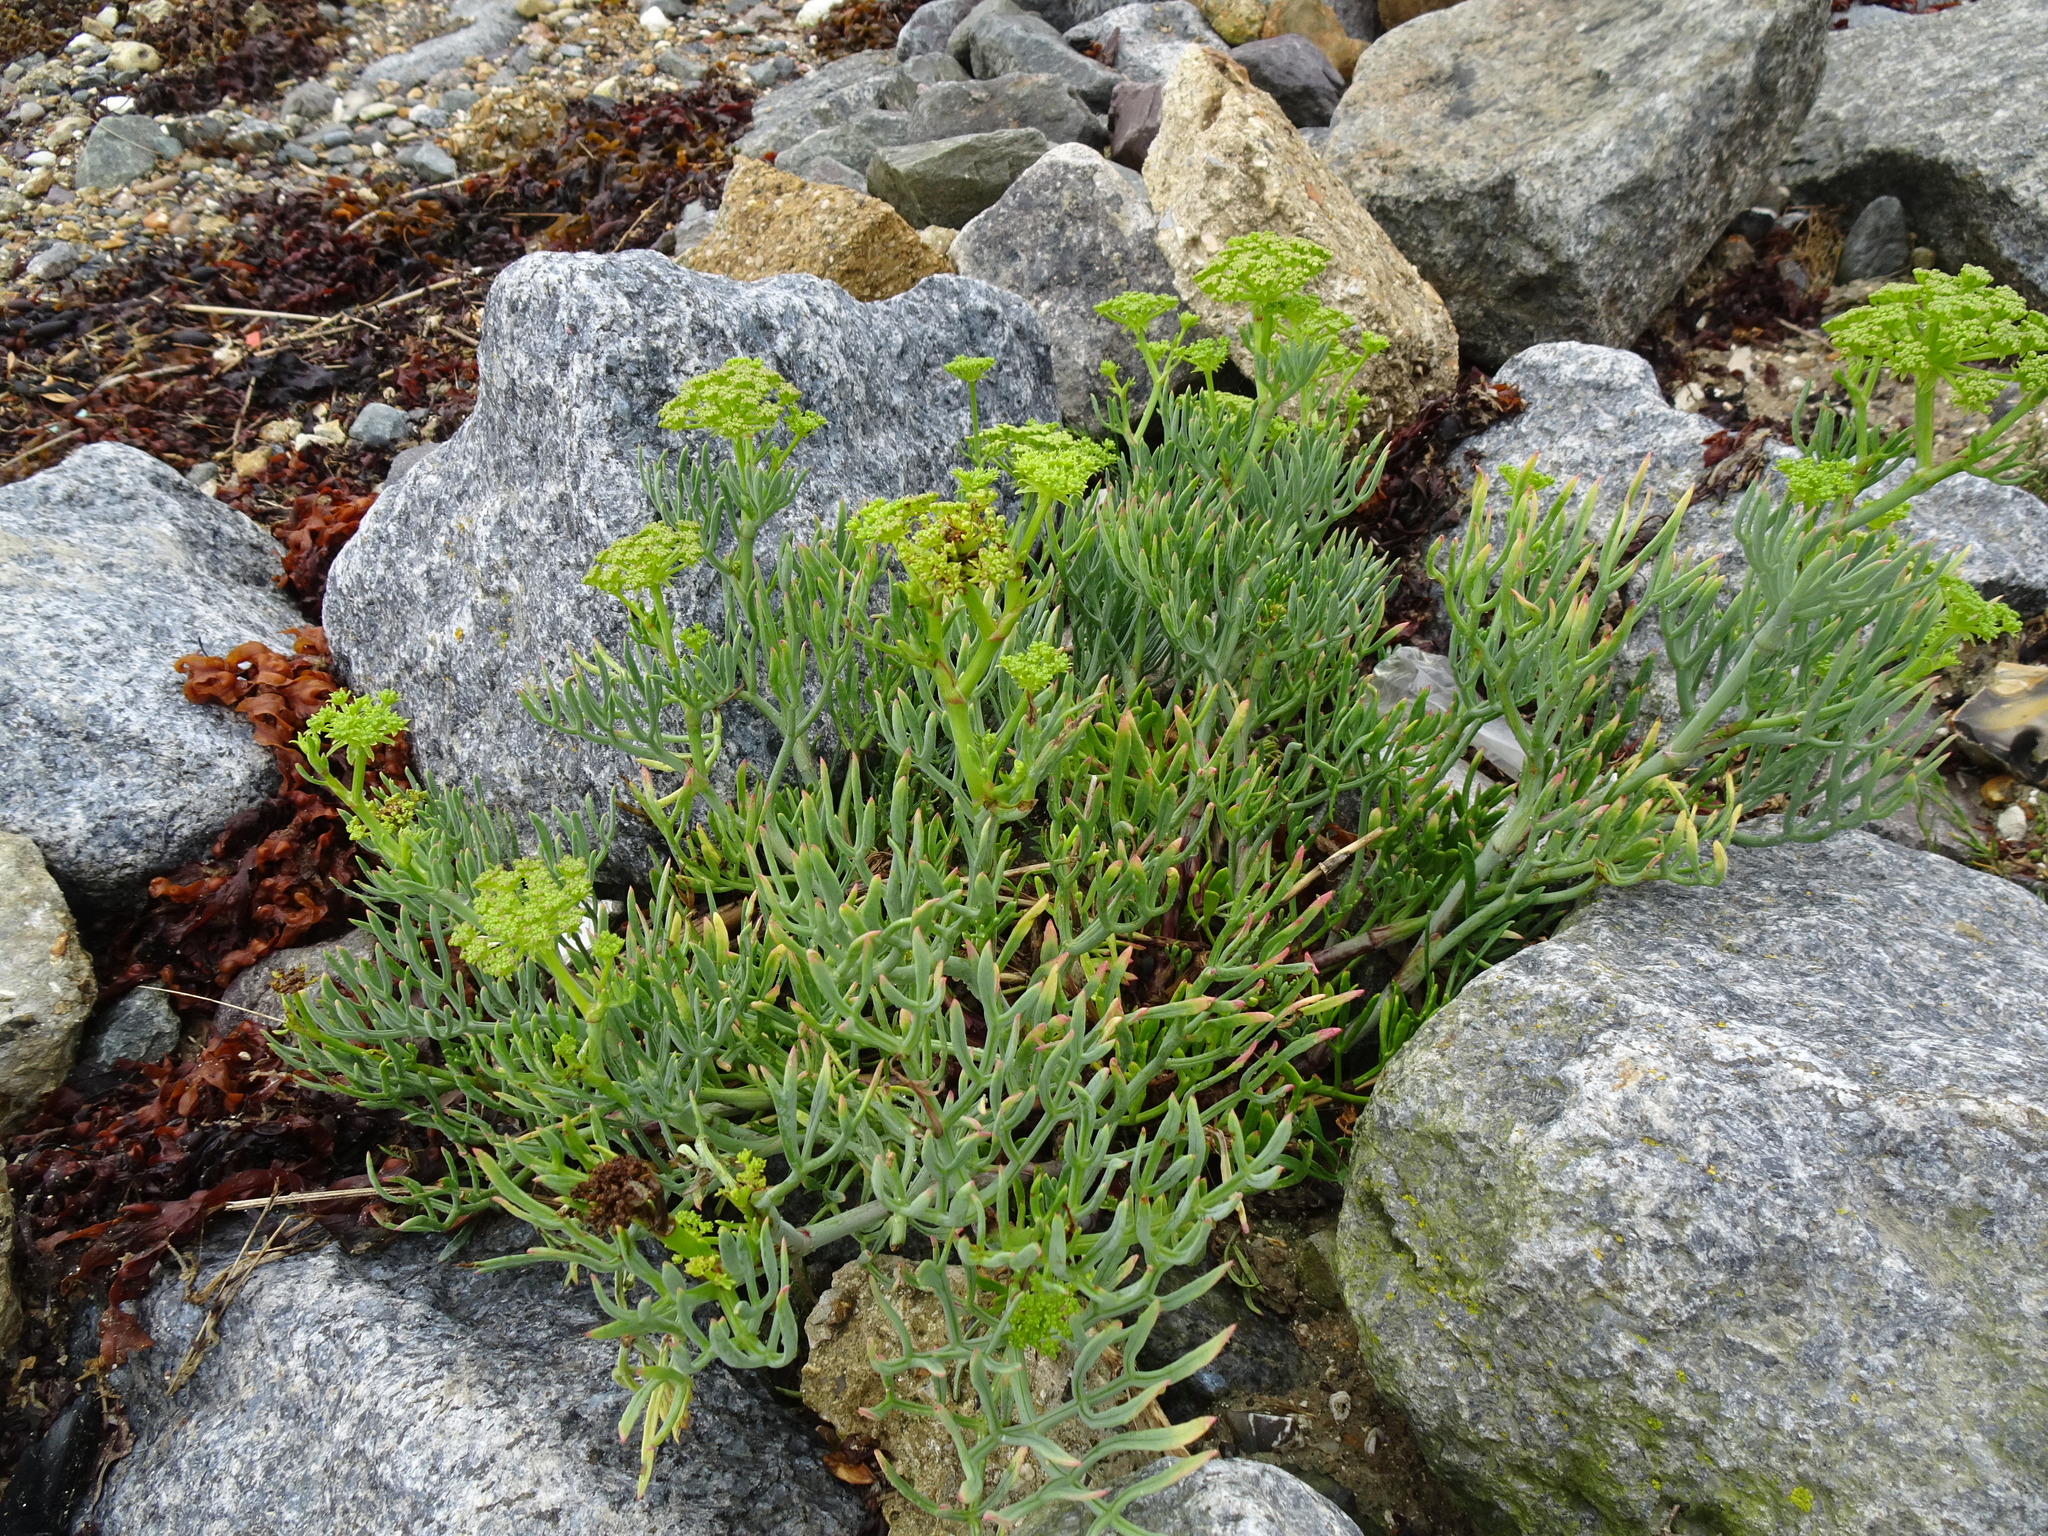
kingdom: Plantae
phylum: Tracheophyta
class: Magnoliopsida
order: Apiales
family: Apiaceae
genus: Crithmum
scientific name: Crithmum maritimum
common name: Rock samphire
